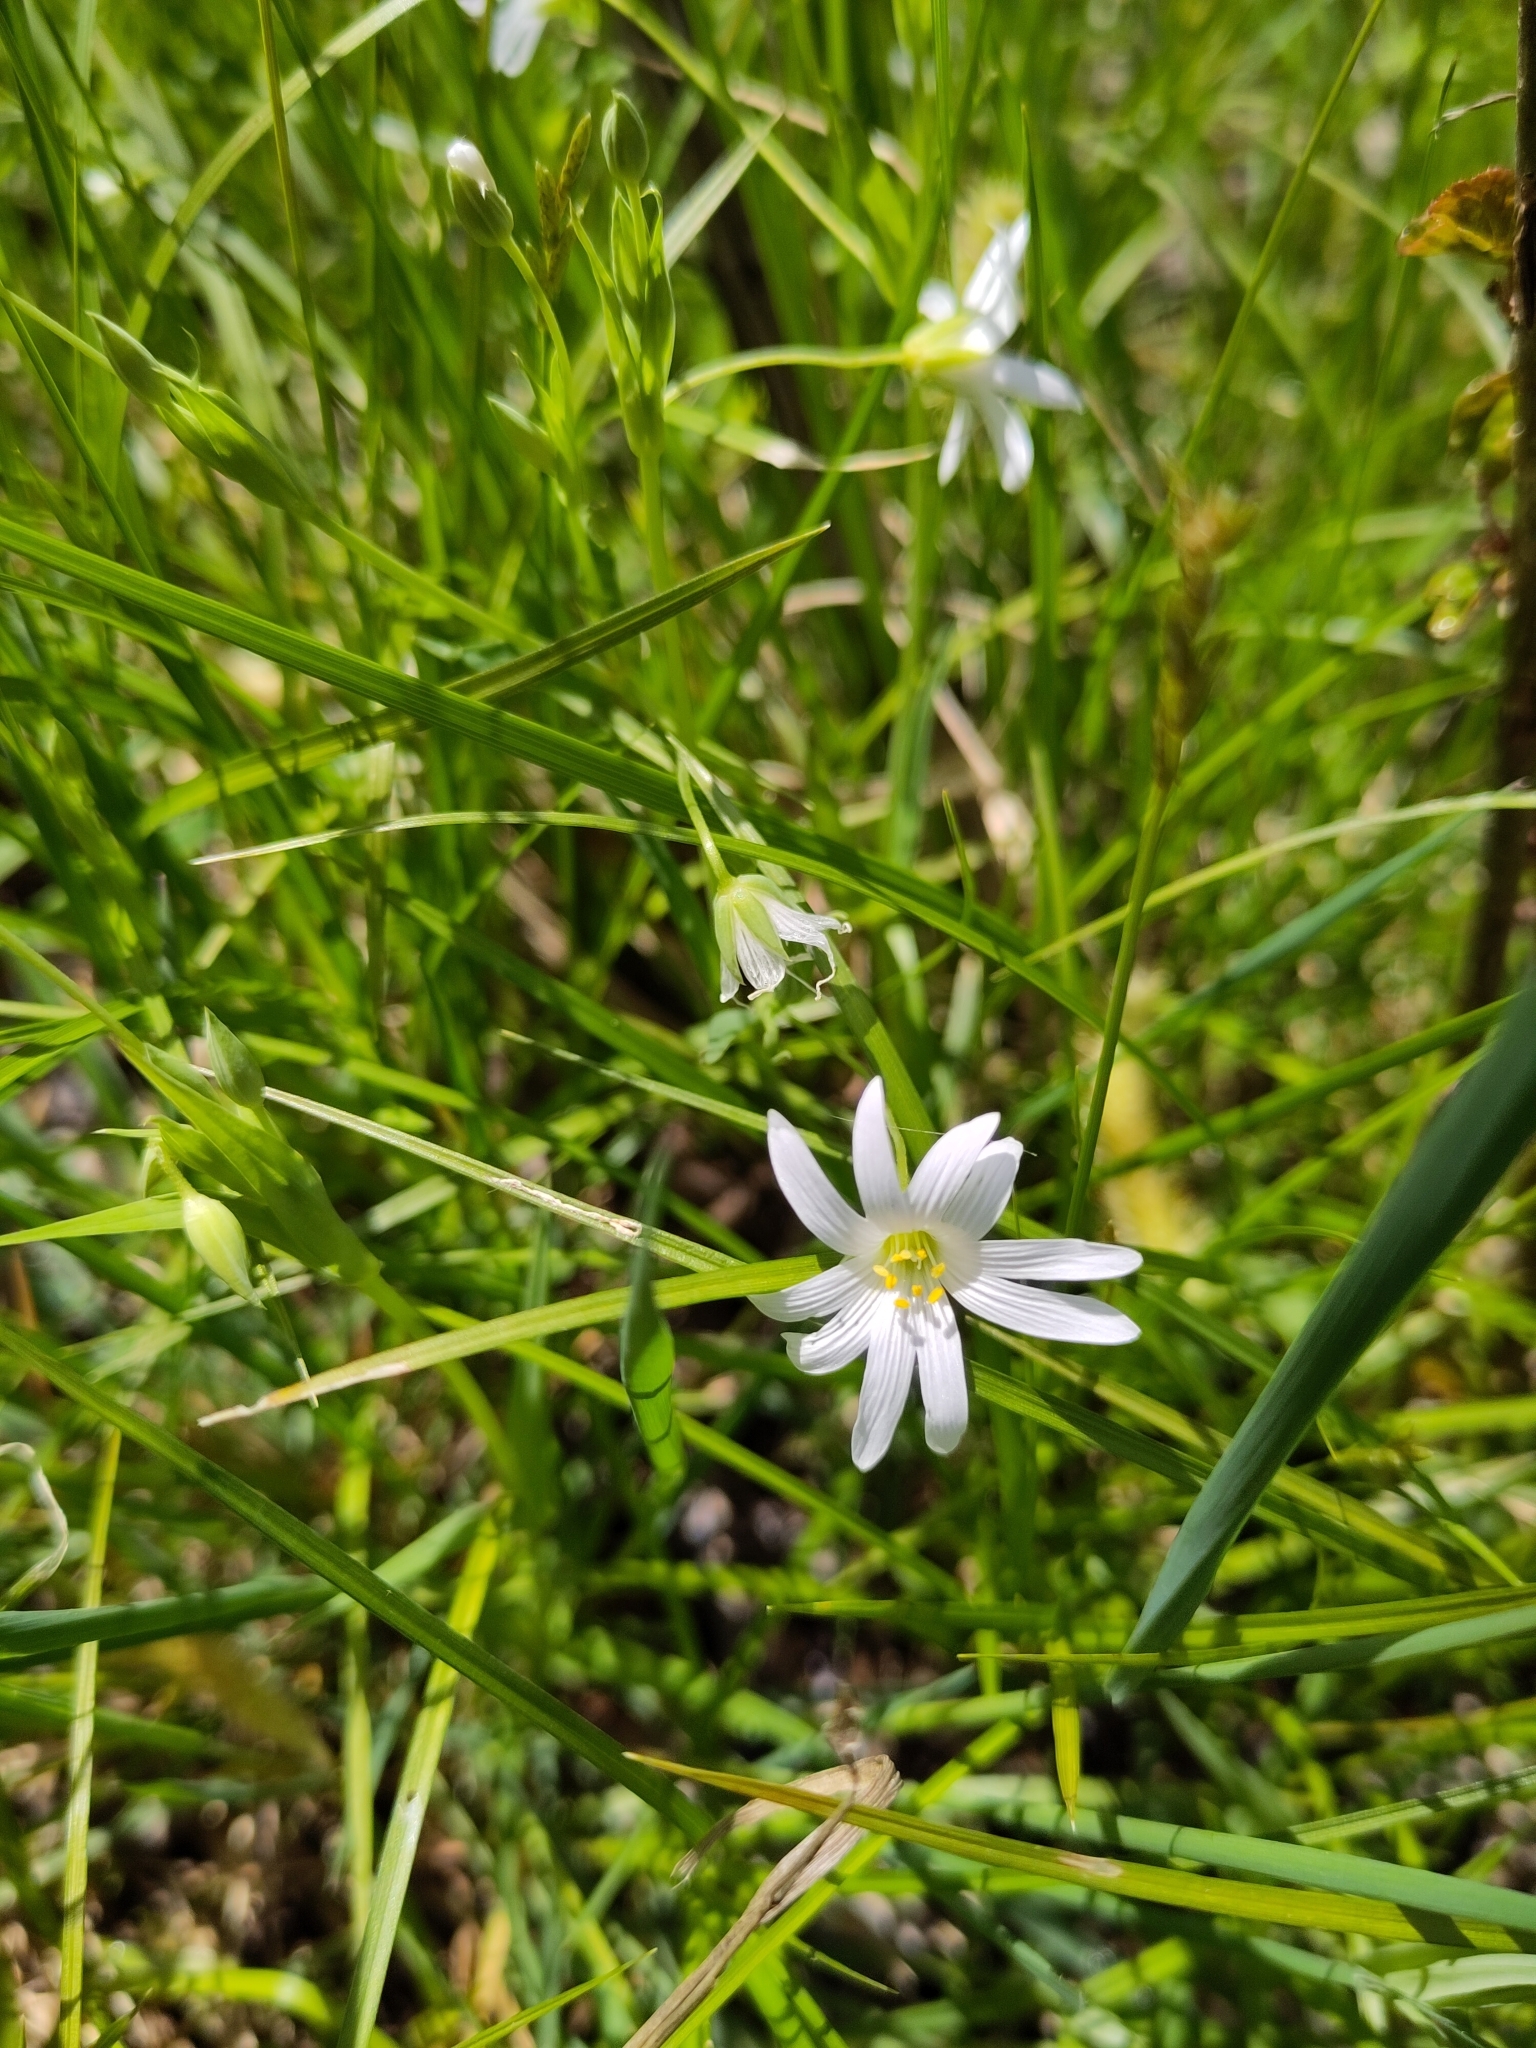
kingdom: Plantae
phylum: Tracheophyta
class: Magnoliopsida
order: Caryophyllales
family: Caryophyllaceae
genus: Rabelera
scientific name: Rabelera holostea
